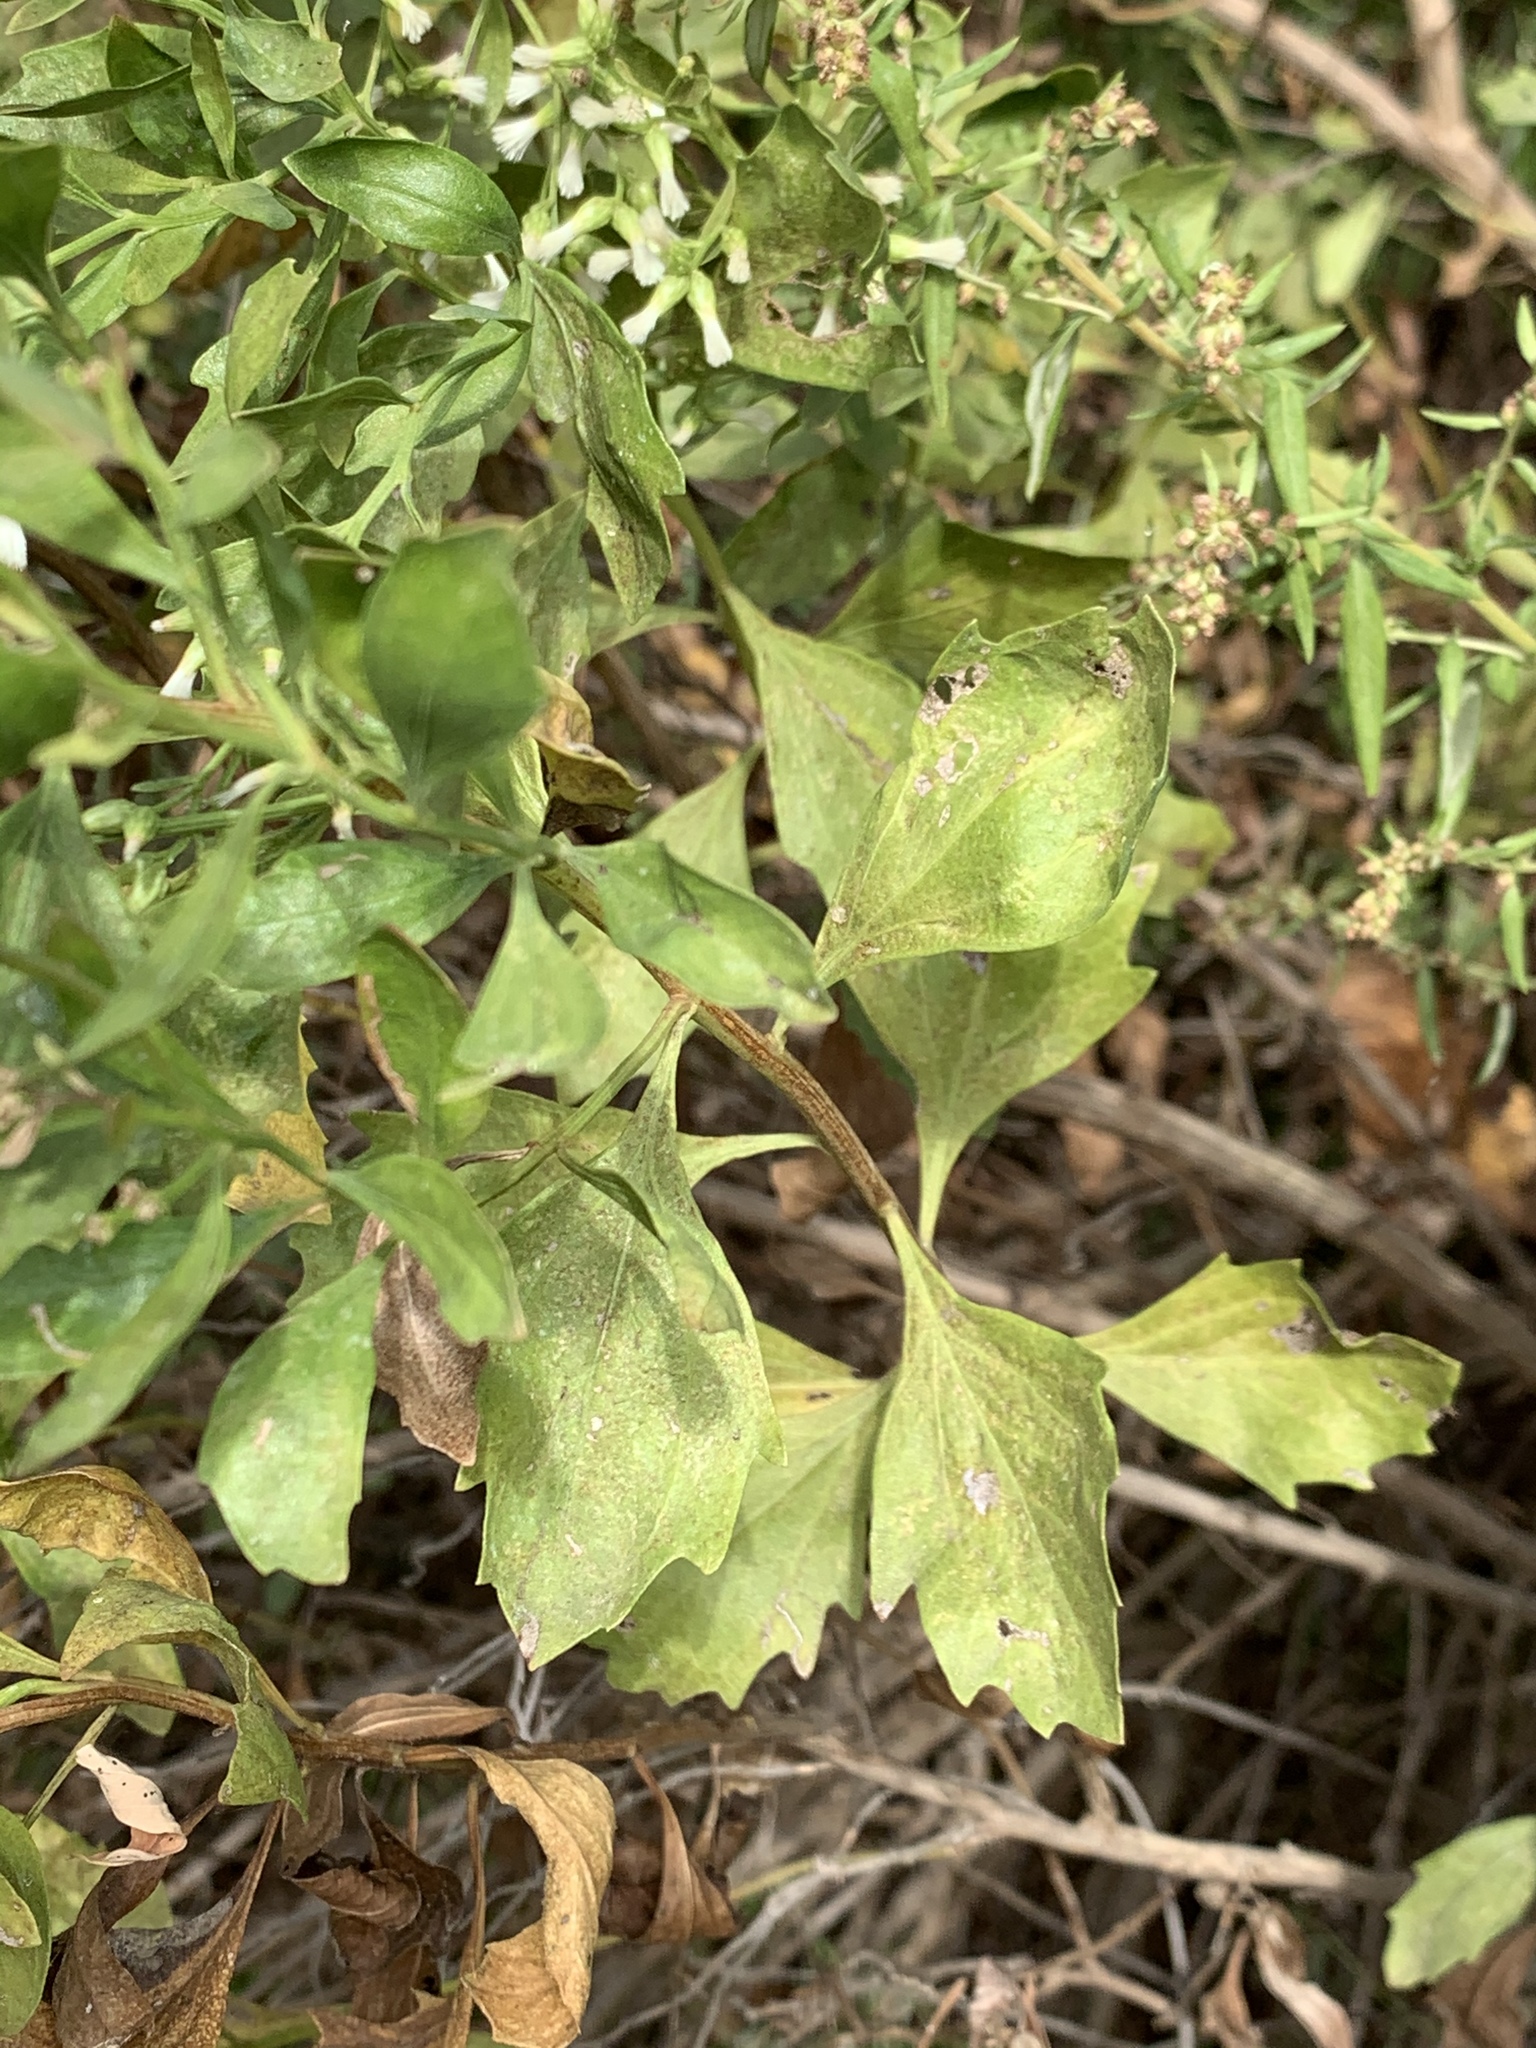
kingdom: Plantae
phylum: Tracheophyta
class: Magnoliopsida
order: Asterales
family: Asteraceae
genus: Baccharis
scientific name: Baccharis halimifolia
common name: Eastern baccharis
